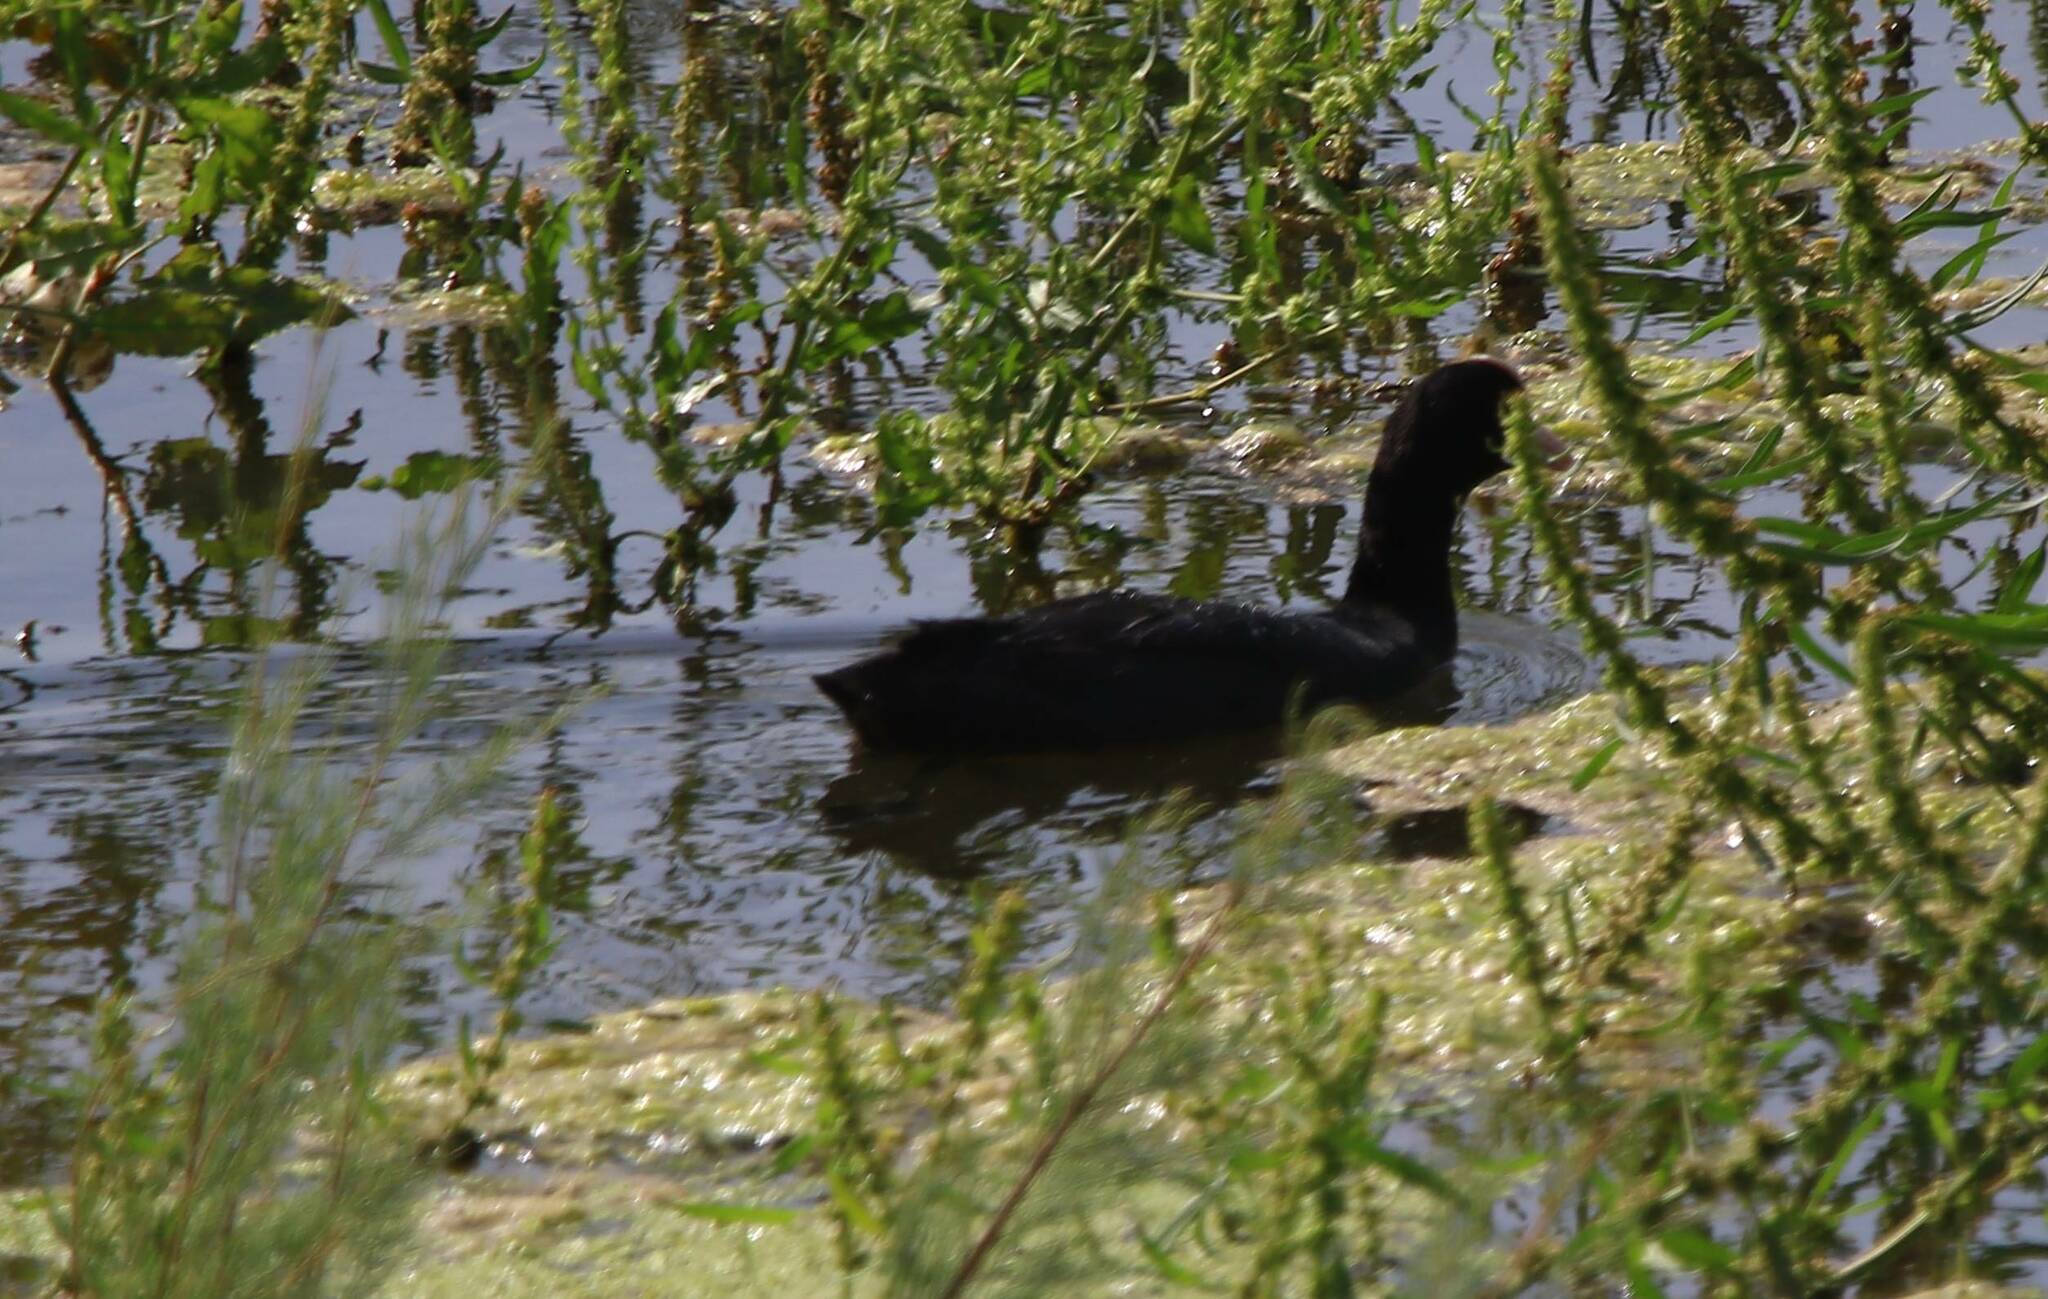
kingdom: Animalia
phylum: Chordata
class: Aves
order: Gruiformes
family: Rallidae
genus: Fulica
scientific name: Fulica atra
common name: Eurasian coot
